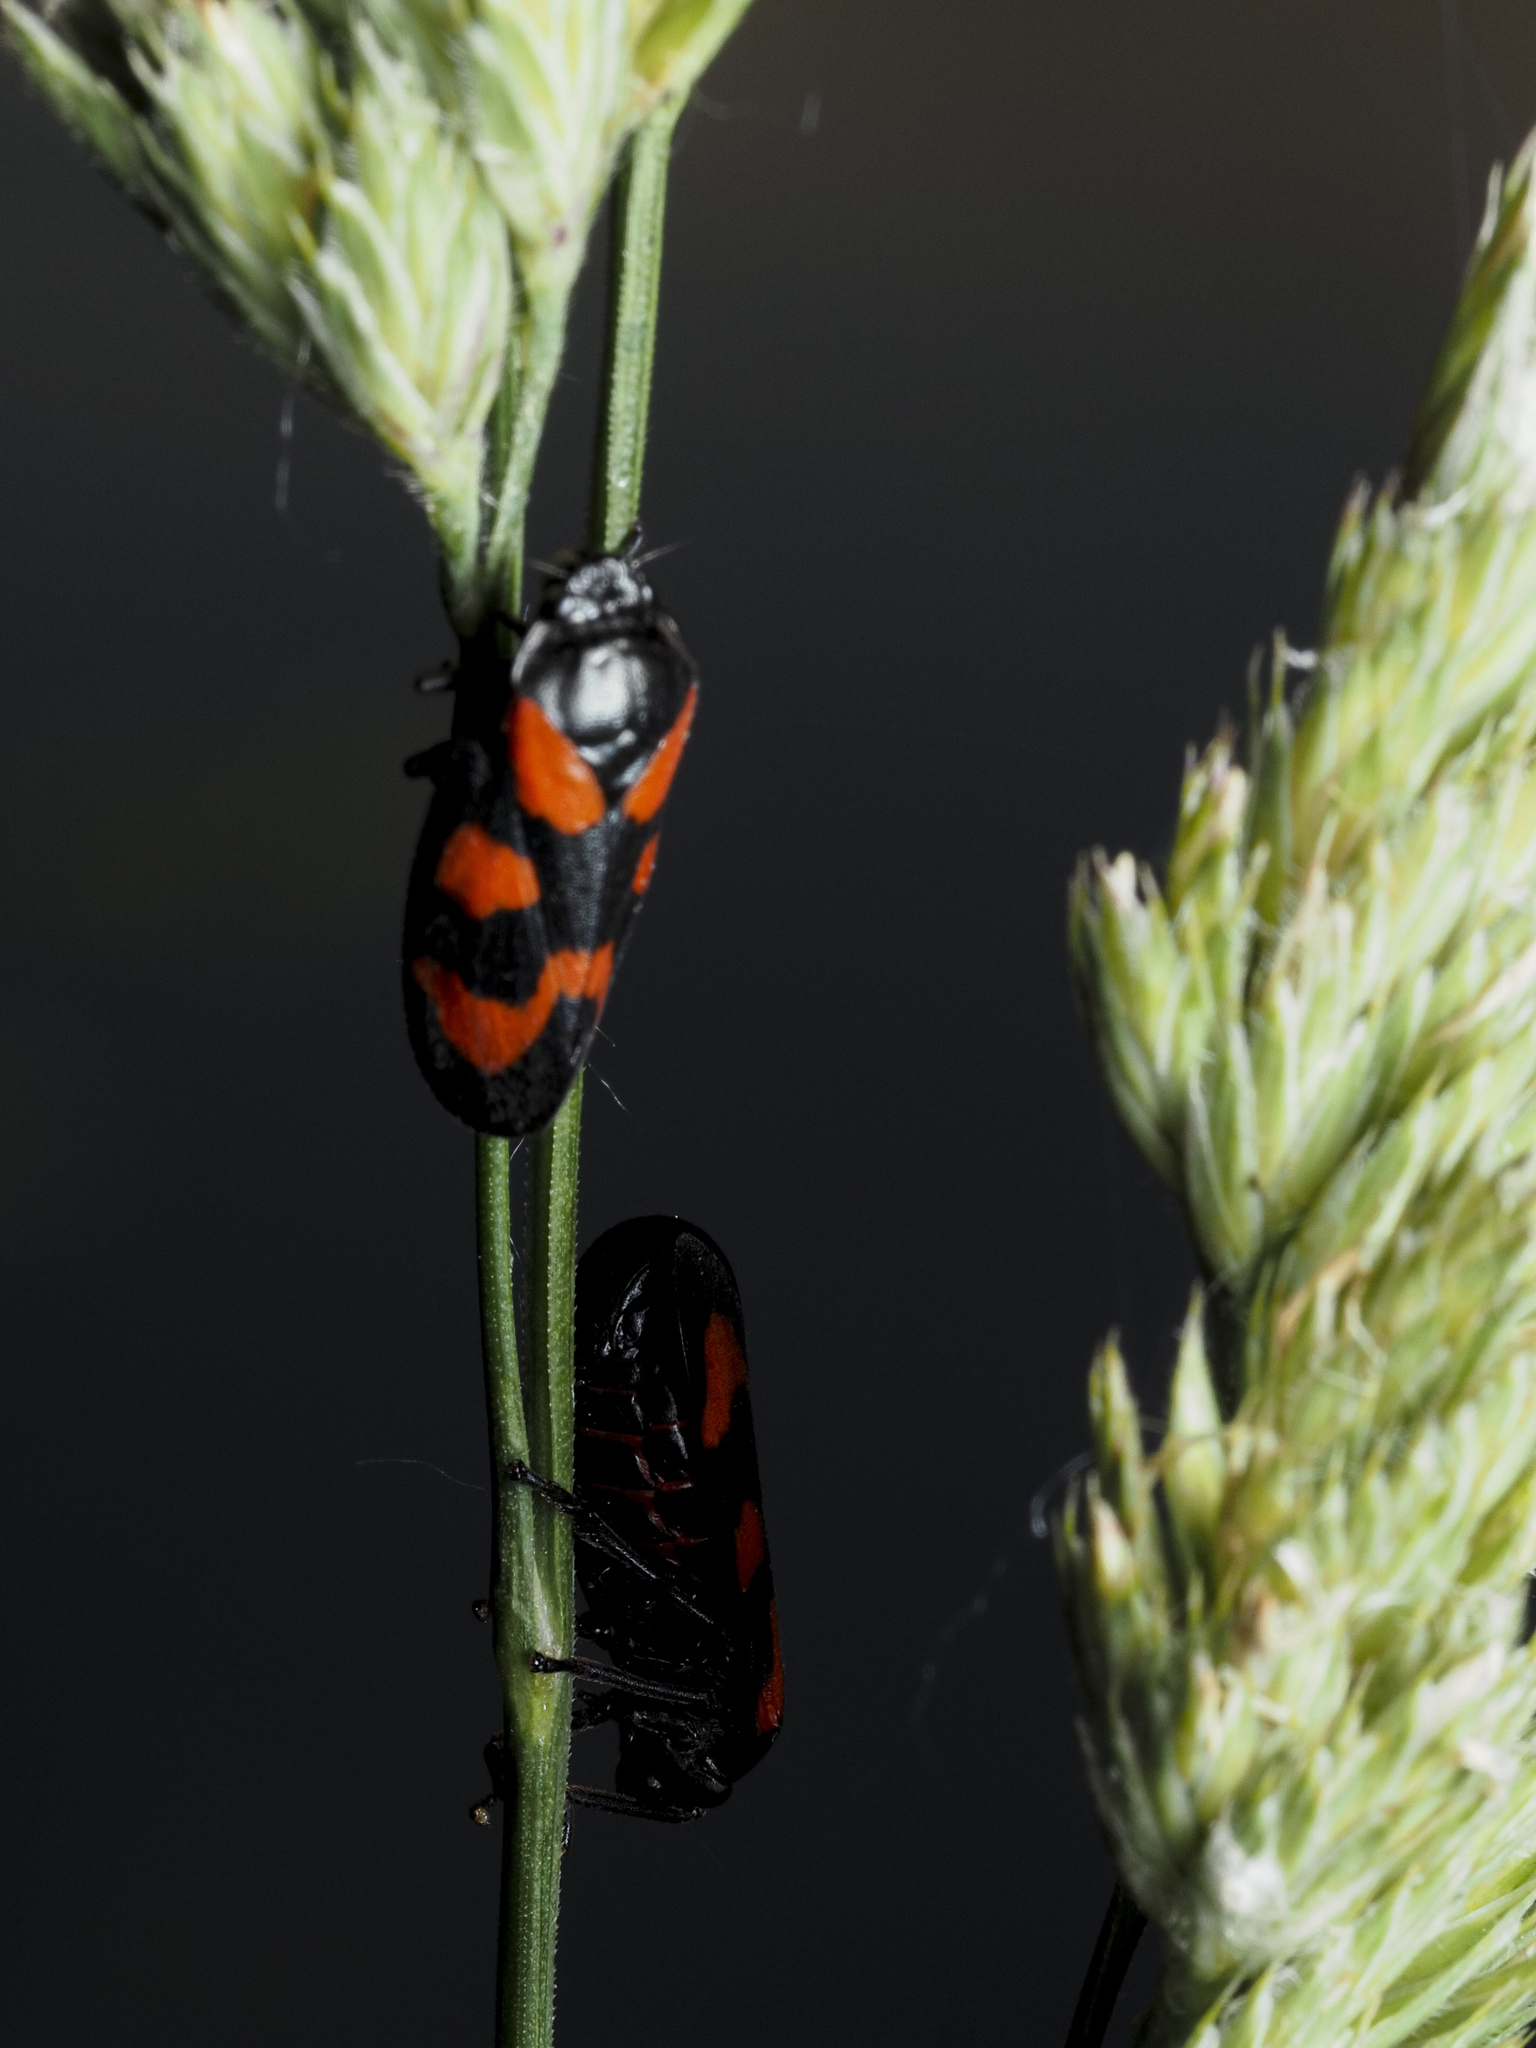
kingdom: Animalia
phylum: Arthropoda
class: Insecta
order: Hemiptera
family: Cercopidae
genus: Cercopis
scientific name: Cercopis vulnerata
